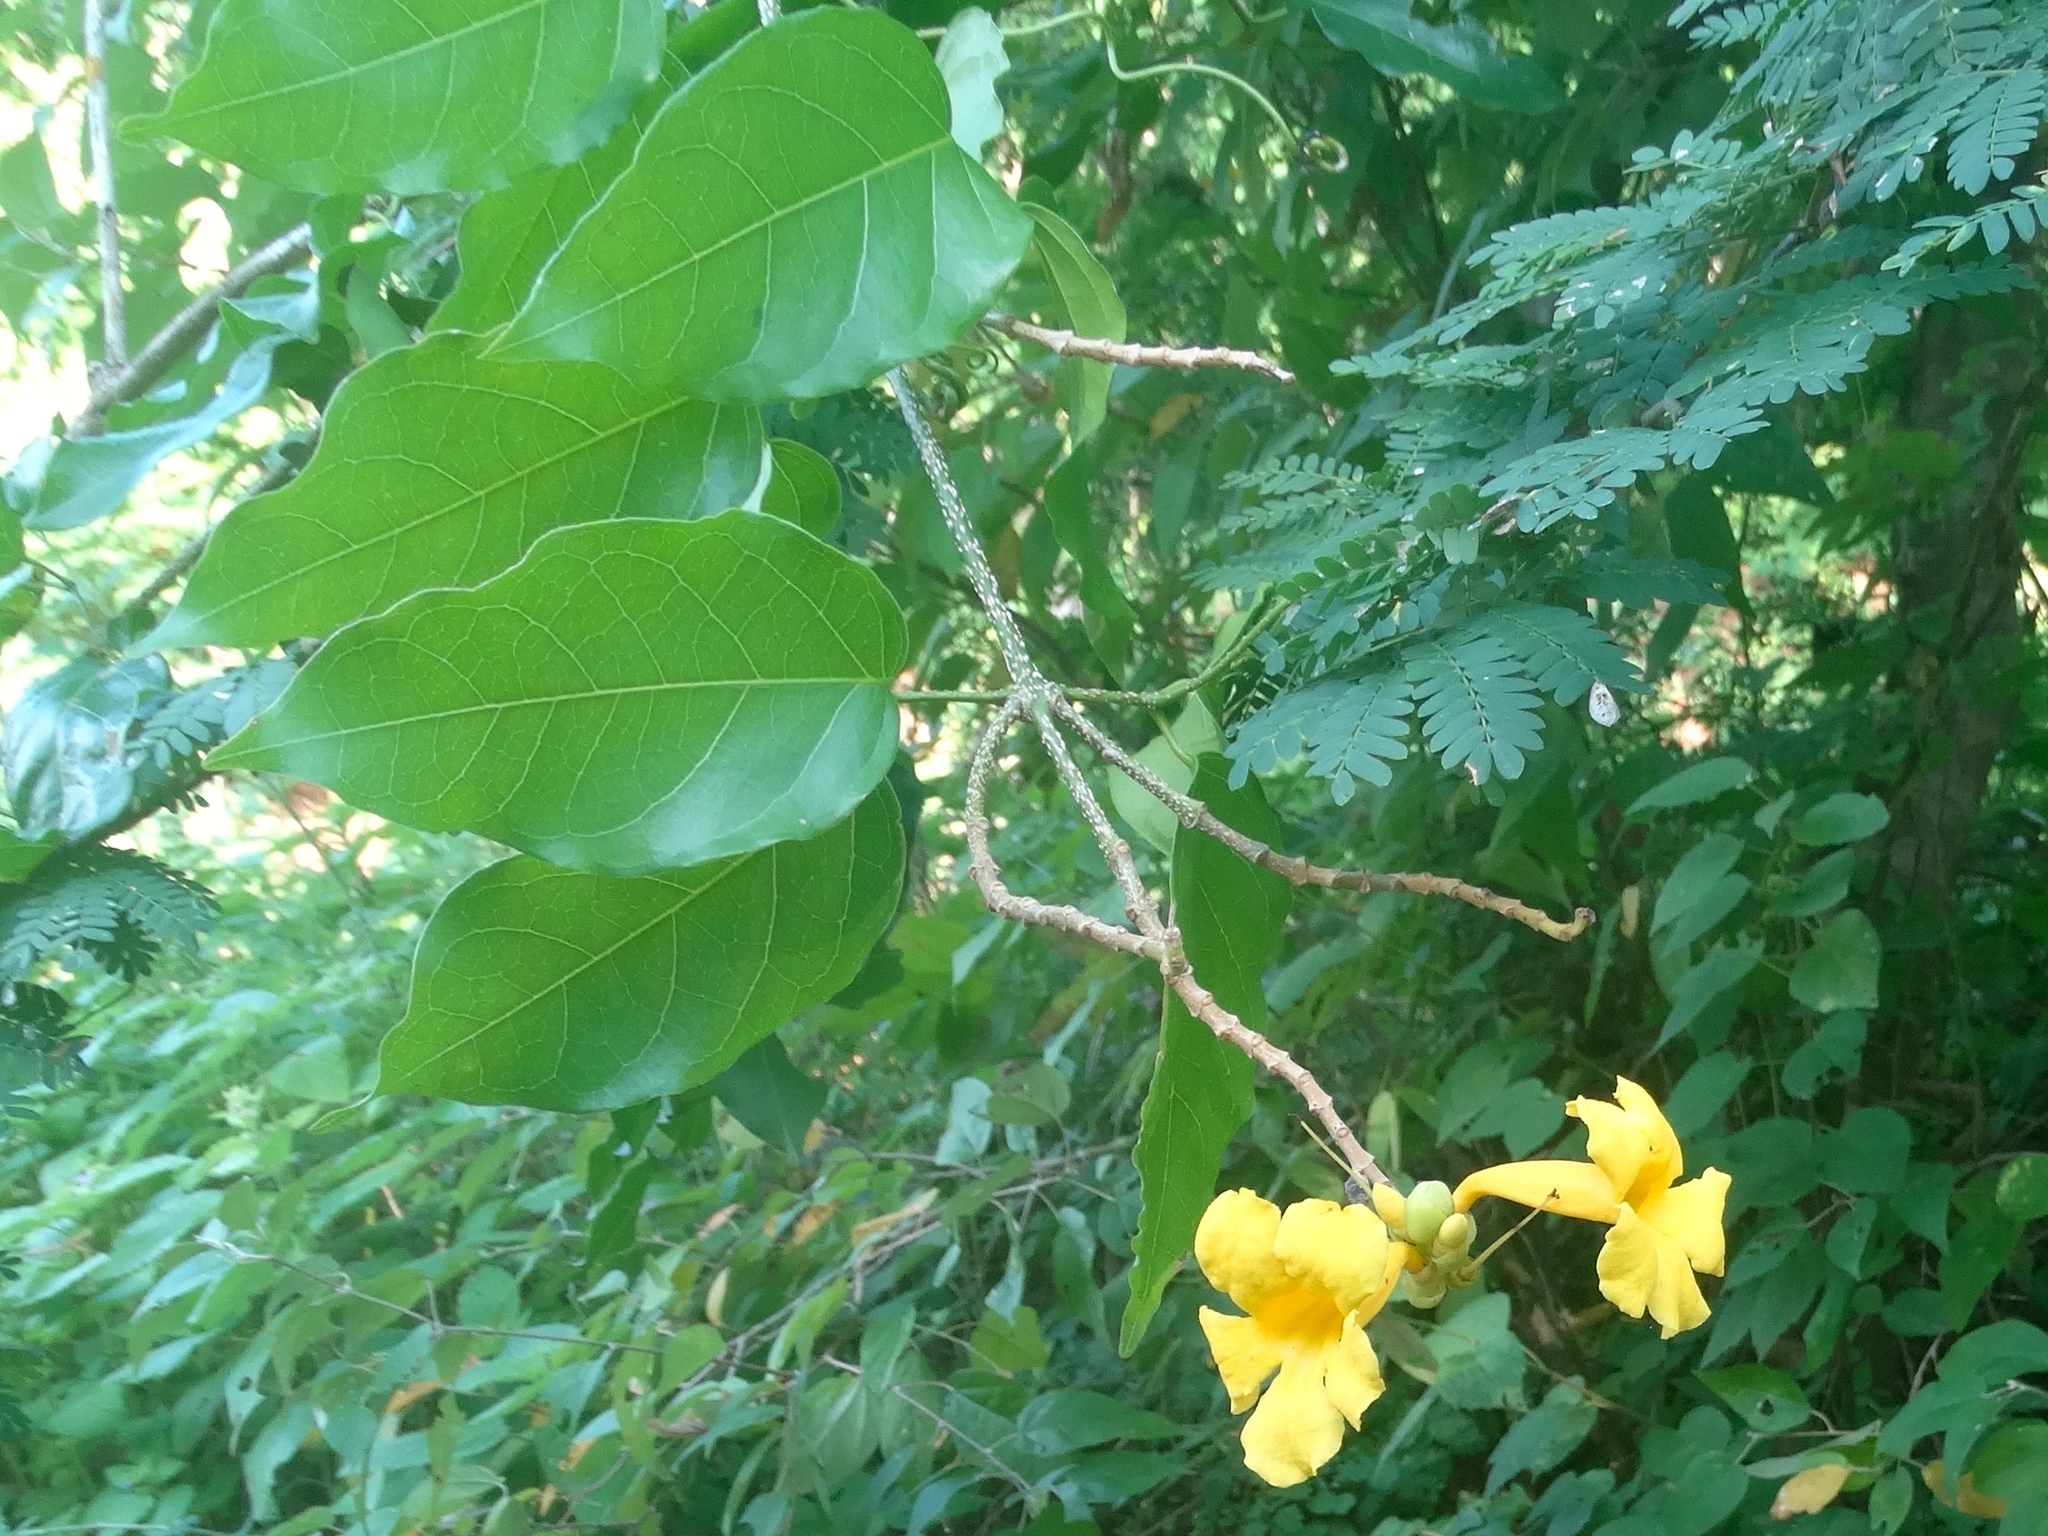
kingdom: Plantae
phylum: Tracheophyta
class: Magnoliopsida
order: Lamiales
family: Bignoniaceae
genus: Adenocalymma
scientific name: Adenocalymma inundatum
